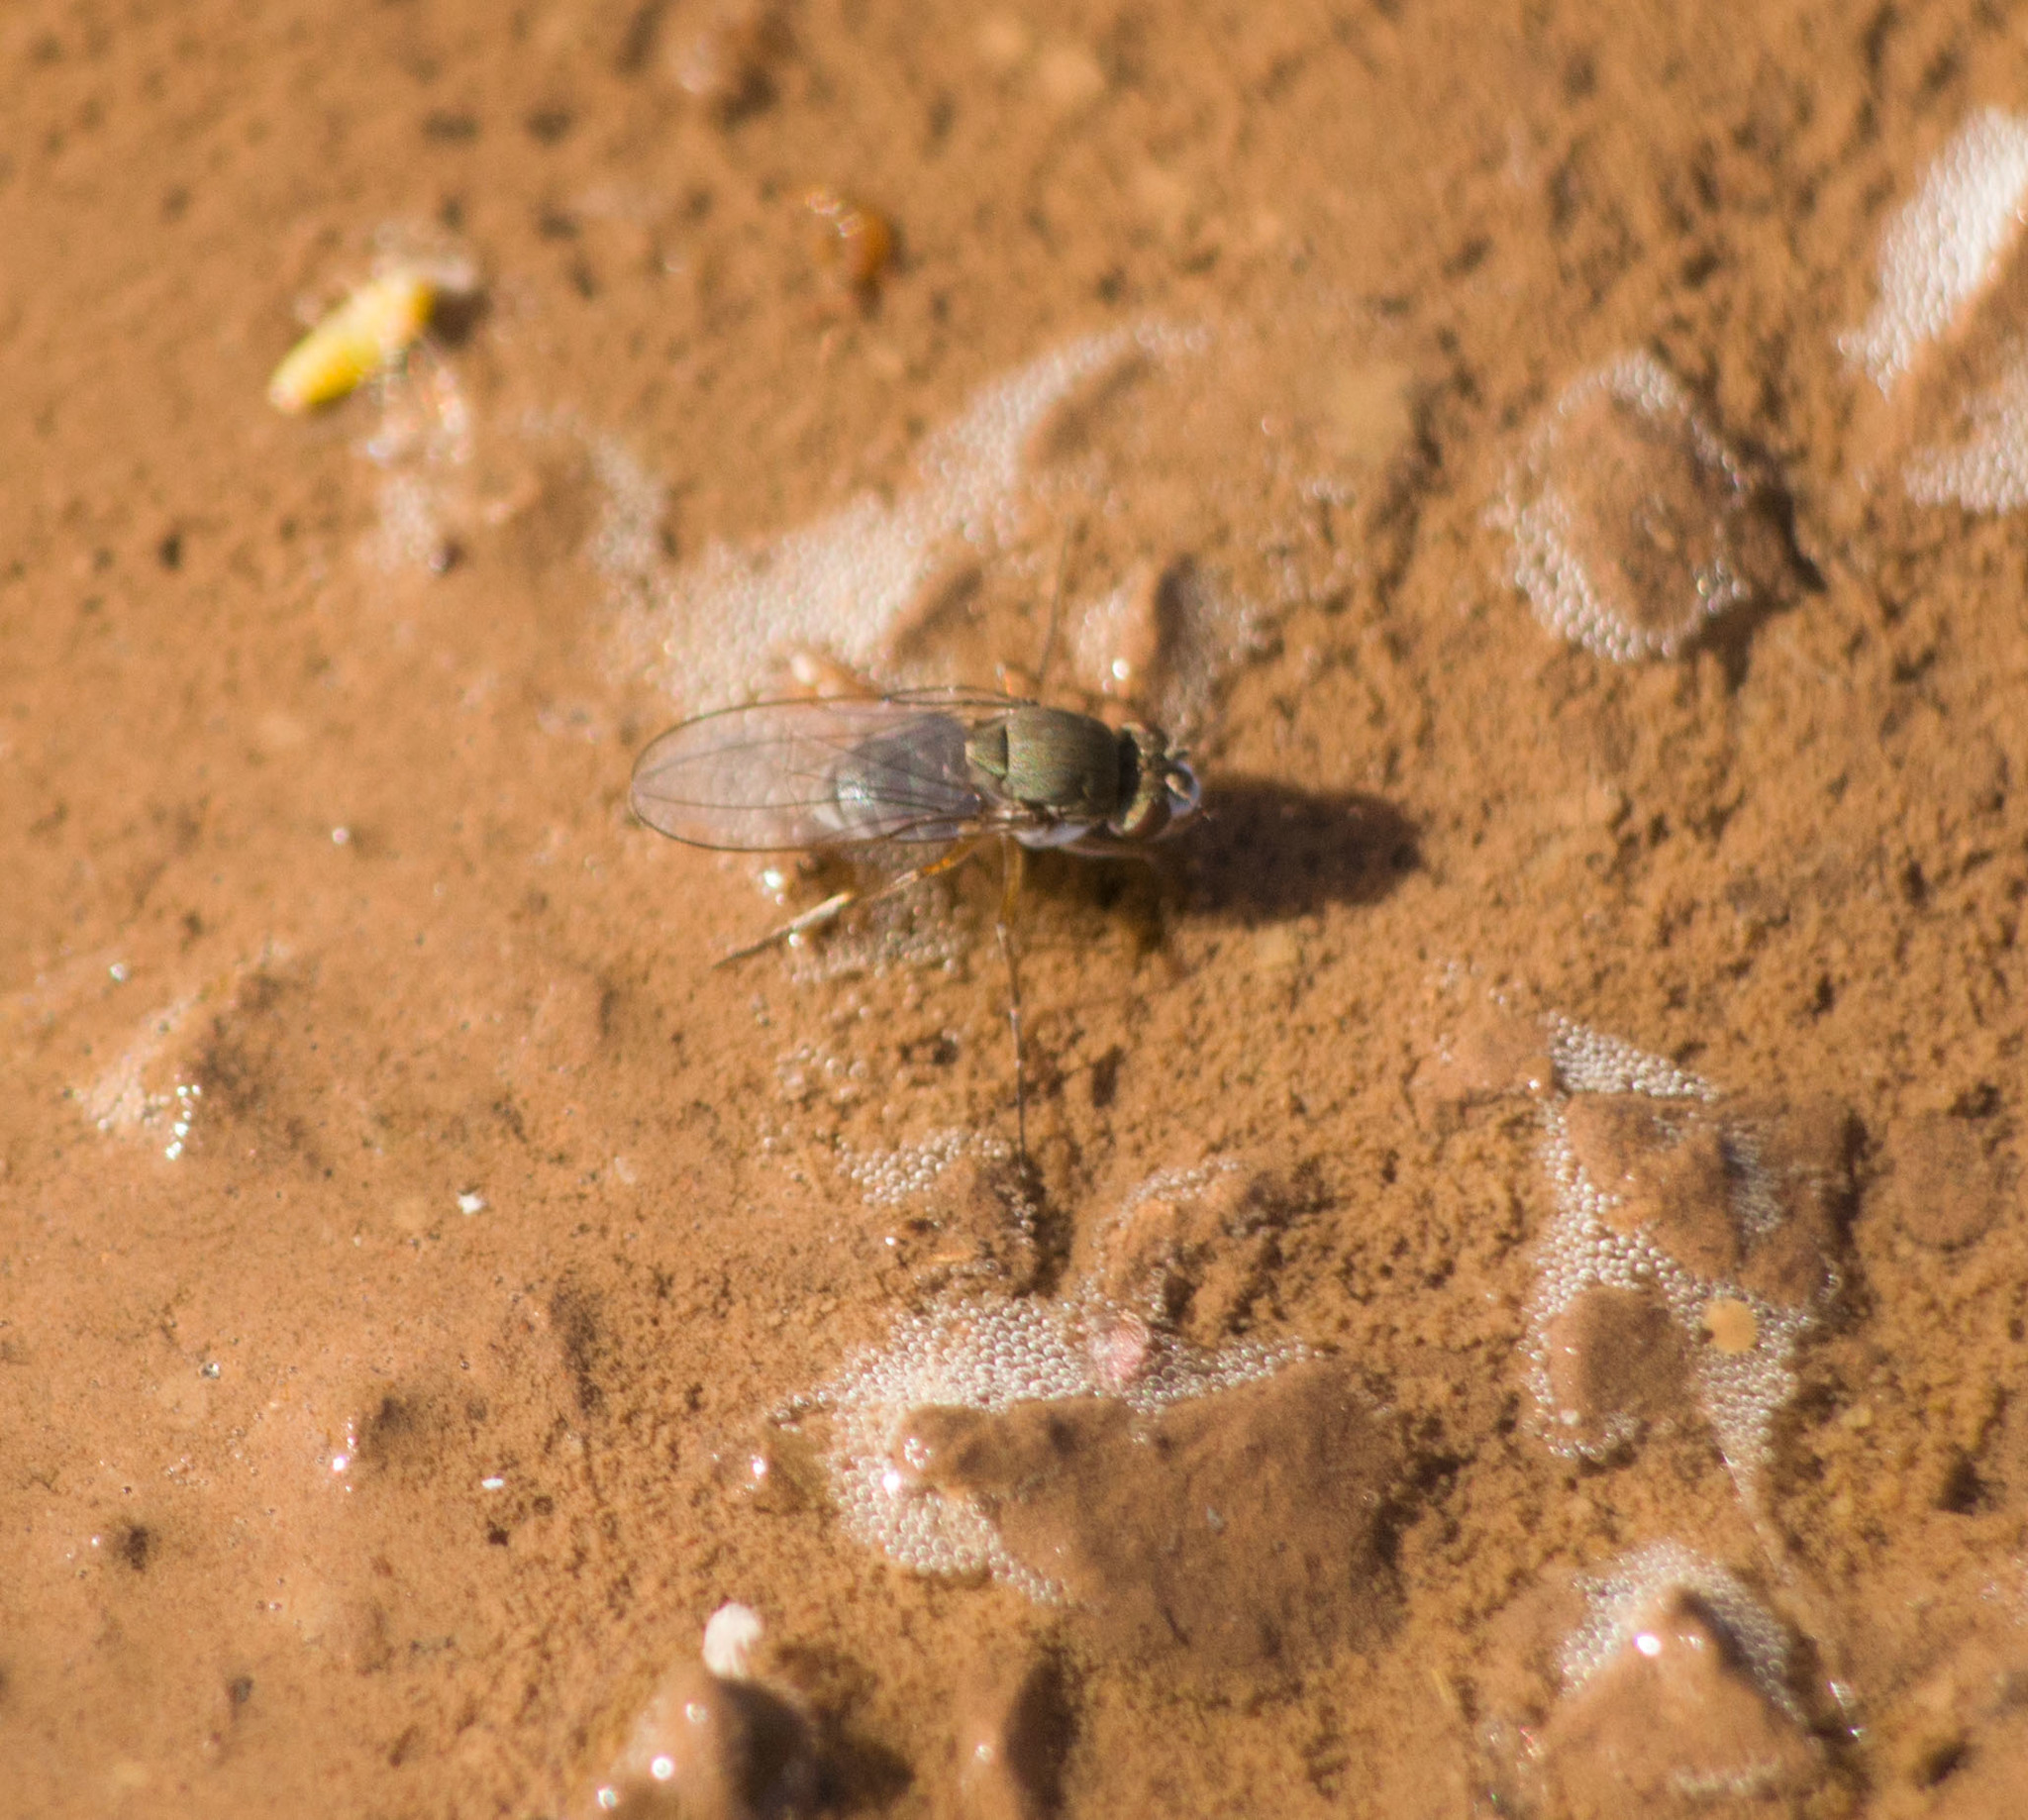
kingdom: Animalia
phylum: Arthropoda
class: Insecta
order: Diptera
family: Ephydridae
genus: Brachydeutera
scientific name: Brachydeutera hebes
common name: Shore fly
